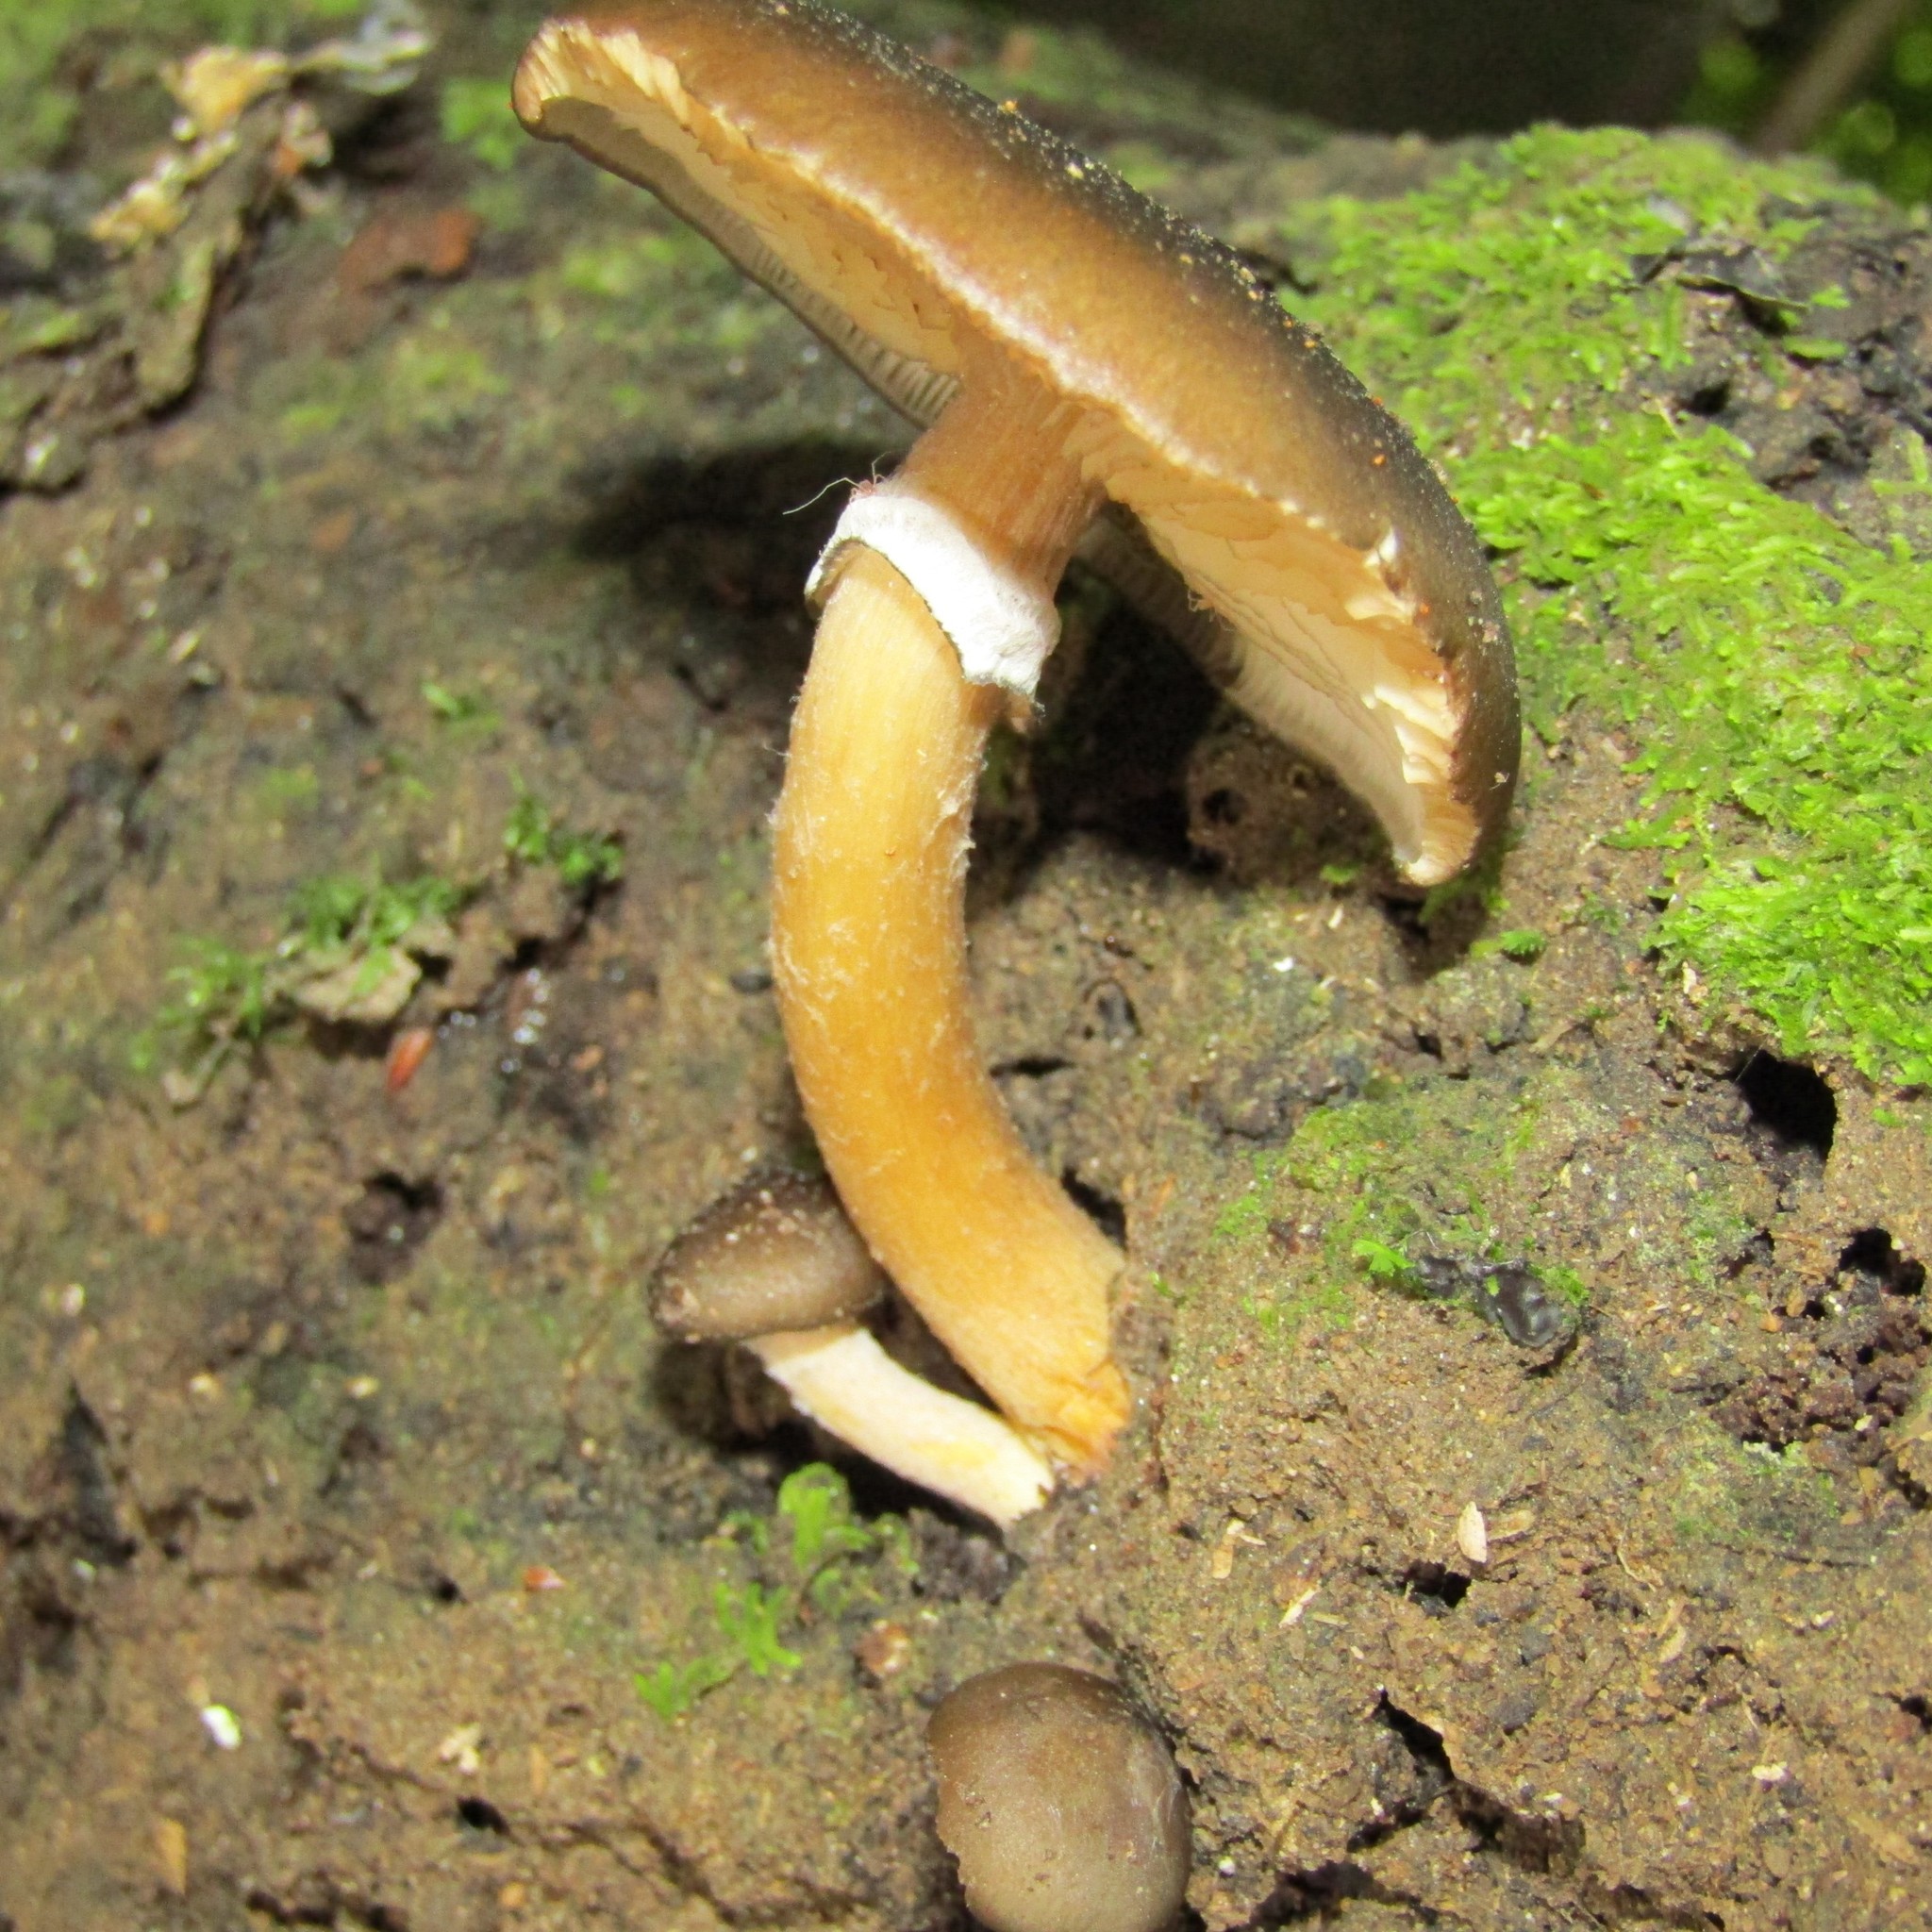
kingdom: Fungi
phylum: Basidiomycota
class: Agaricomycetes
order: Agaricales
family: Physalacriaceae
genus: Armillaria
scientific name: Armillaria novae-zelandiae
